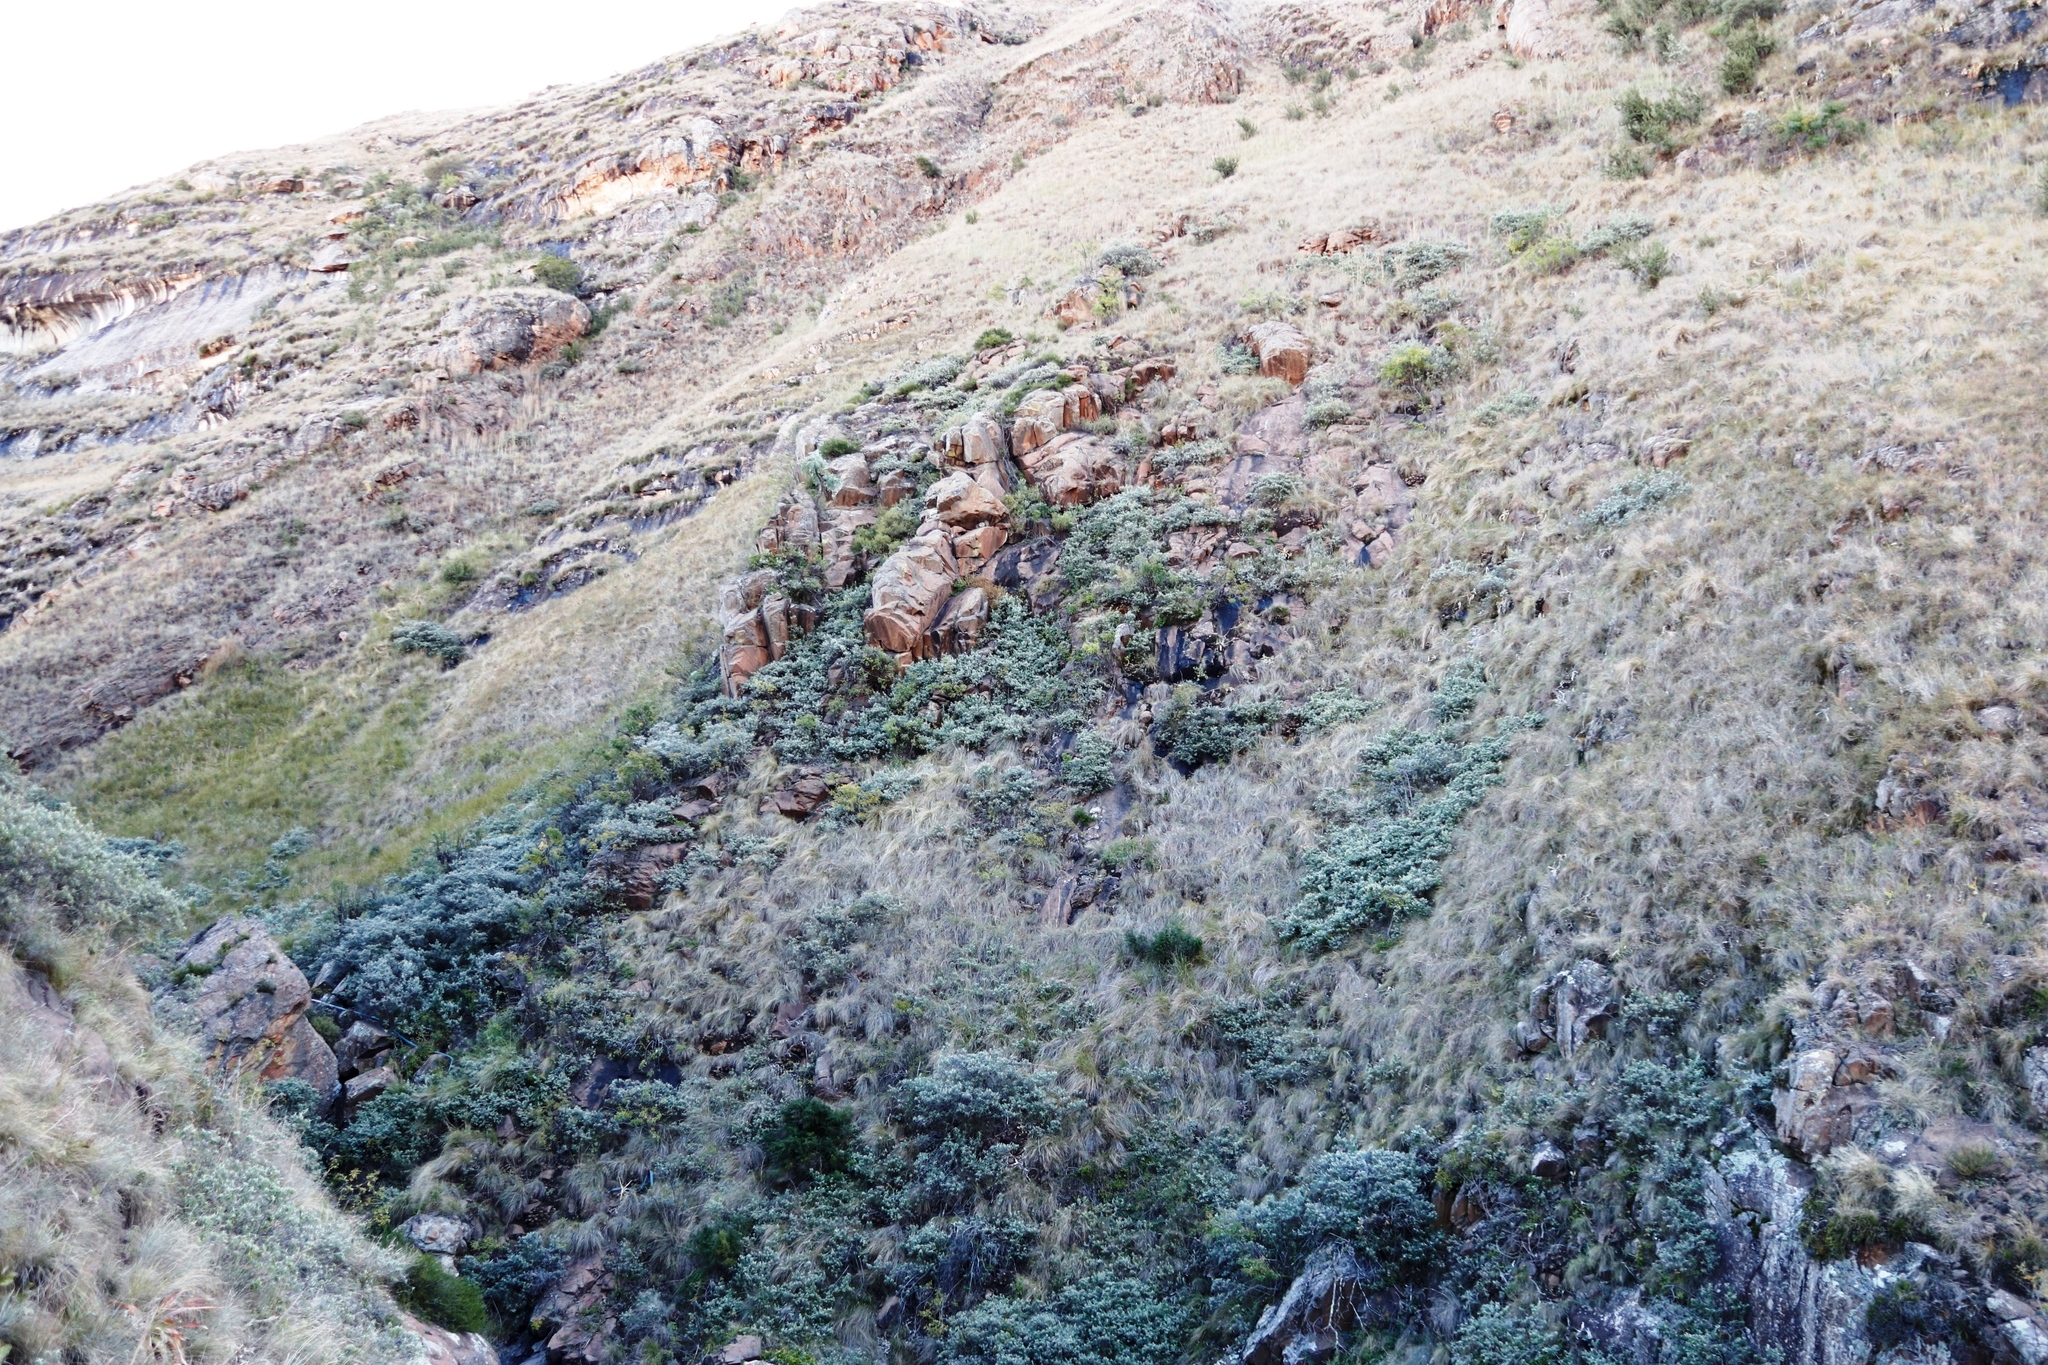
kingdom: Plantae
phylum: Tracheophyta
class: Magnoliopsida
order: Apiales
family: Araliaceae
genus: Cussonia
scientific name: Cussonia paniculata
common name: Cabbagetree
